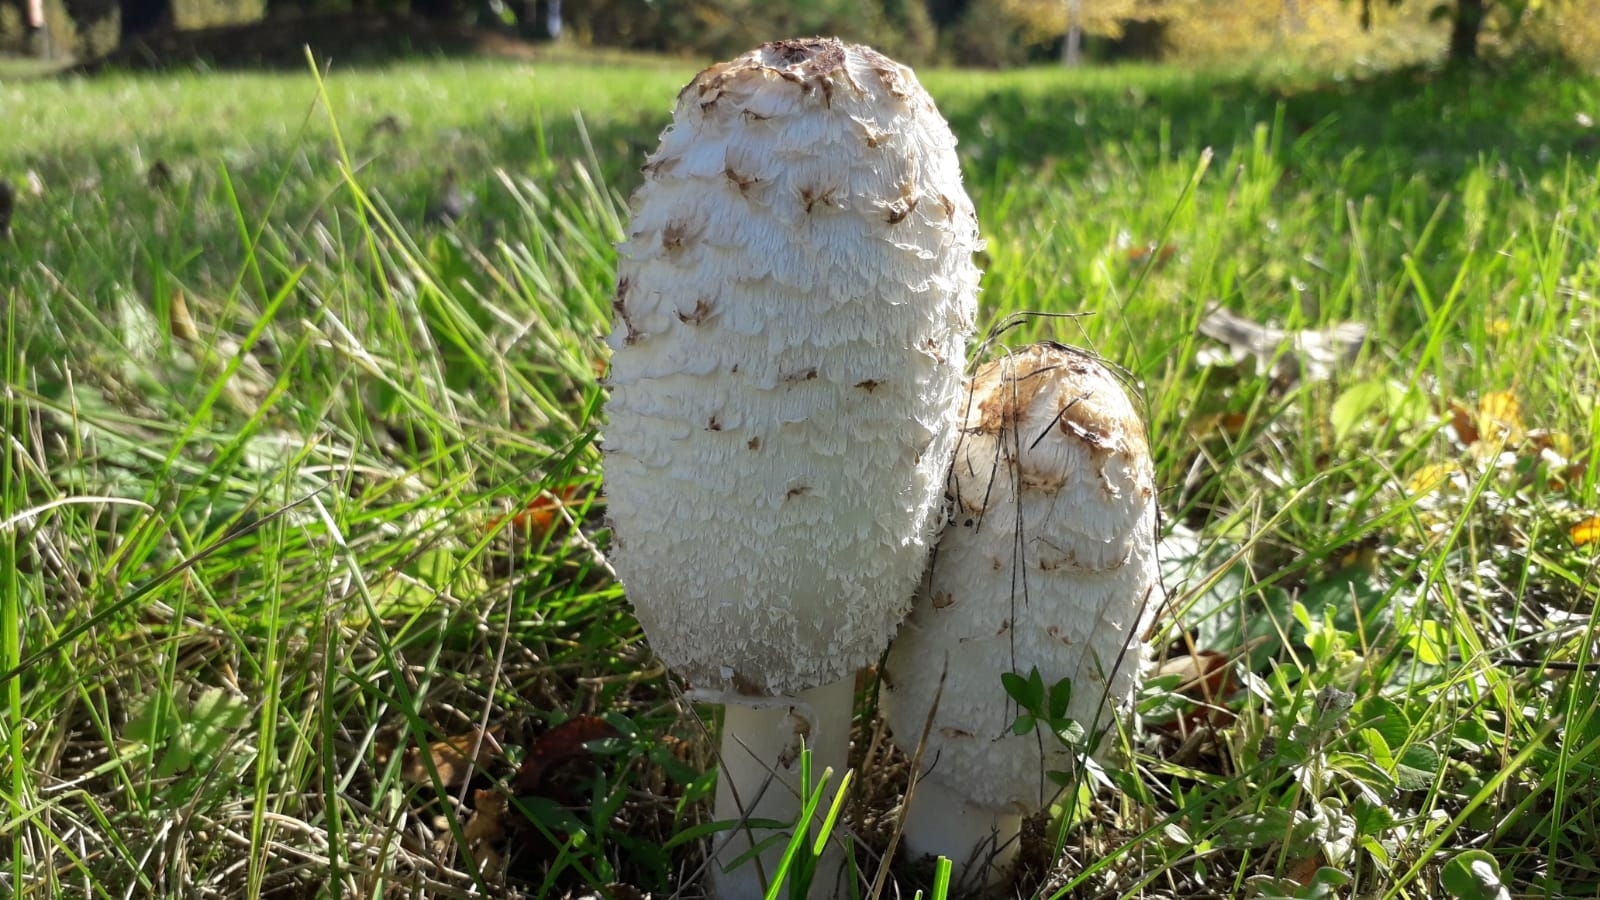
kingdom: Fungi
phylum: Basidiomycota
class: Agaricomycetes
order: Agaricales
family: Agaricaceae
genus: Coprinus
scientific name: Coprinus comatus
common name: Lawyer's wig
